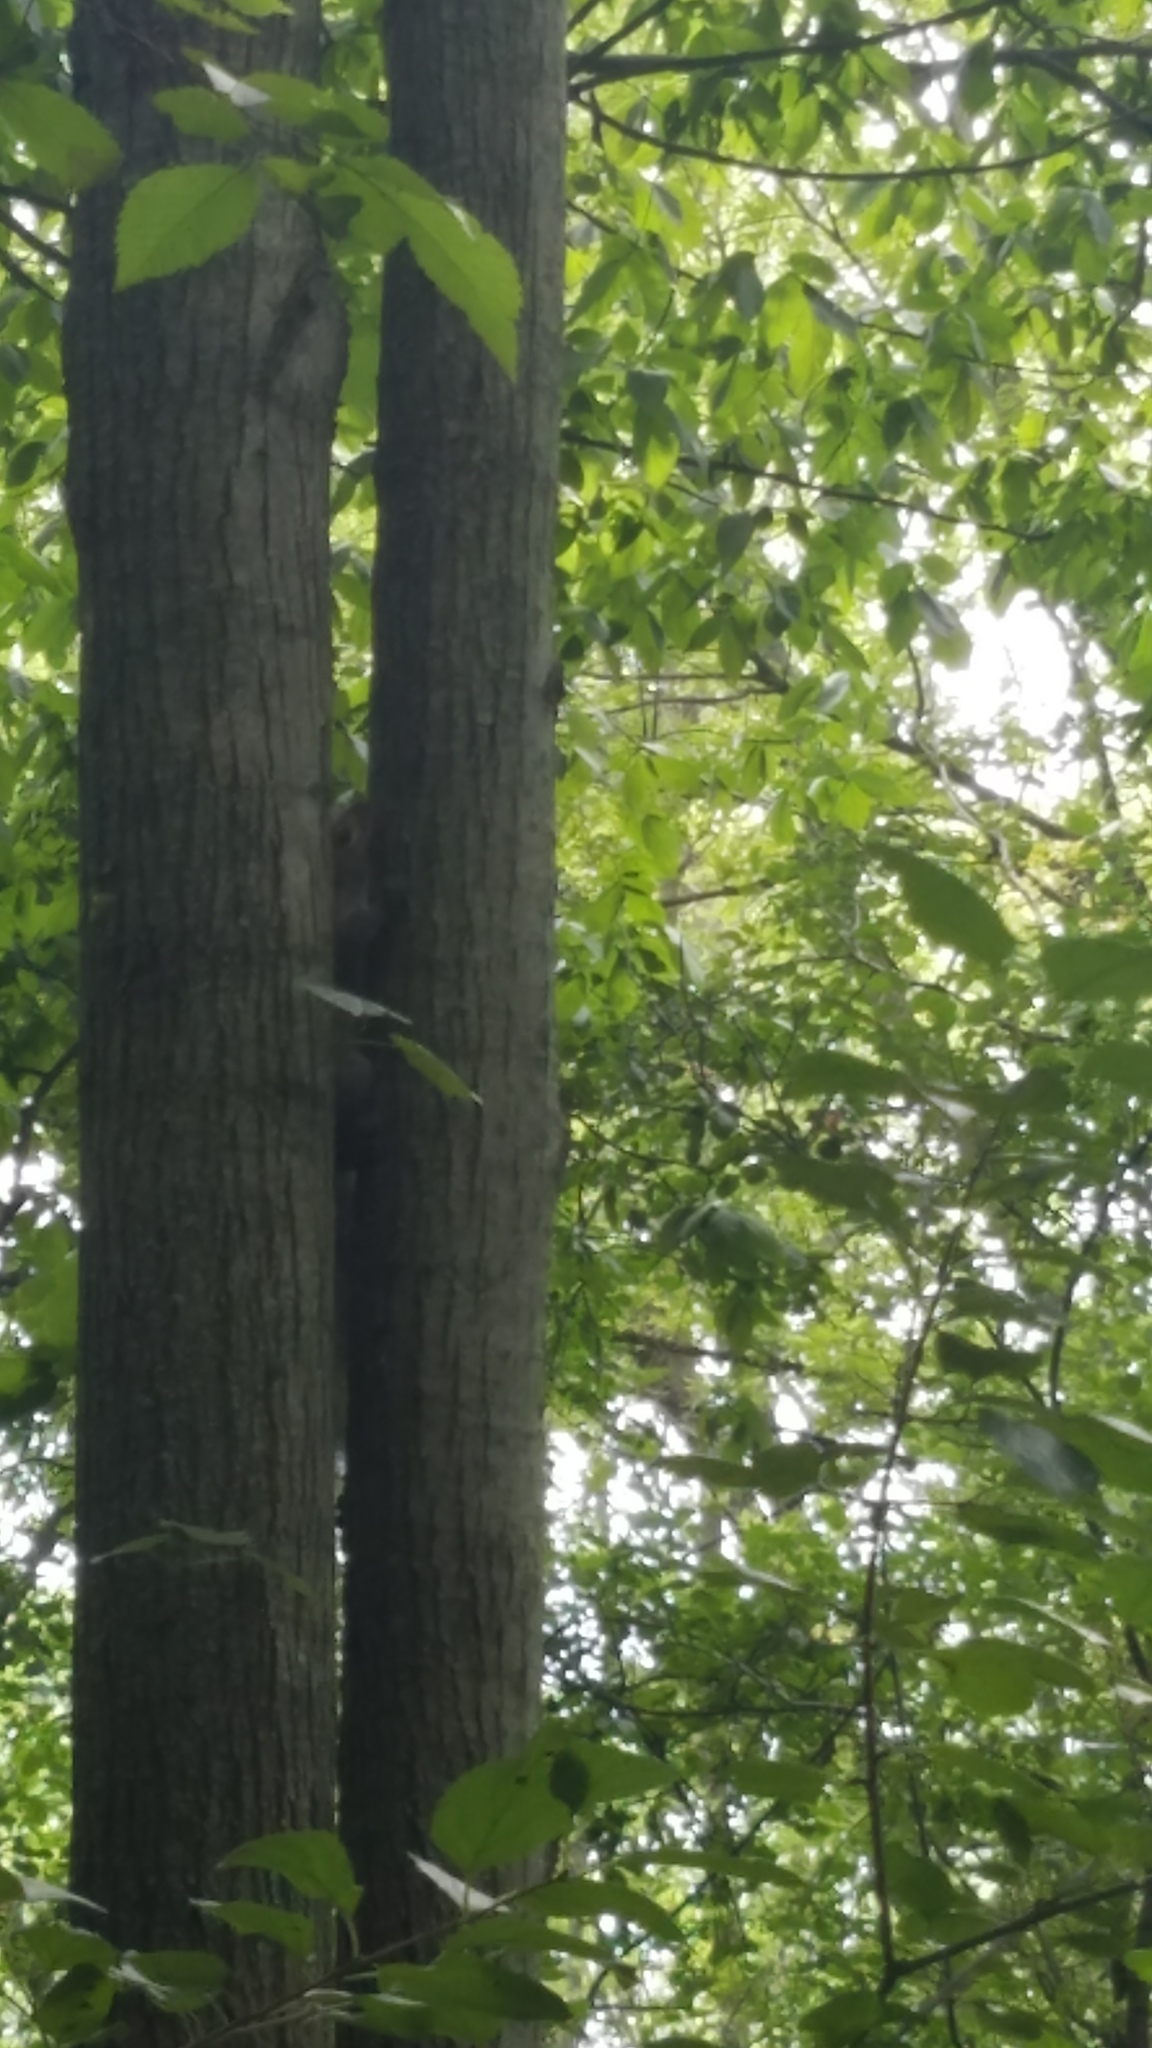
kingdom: Animalia
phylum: Chordata
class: Mammalia
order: Rodentia
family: Sciuridae
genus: Sciurus
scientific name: Sciurus carolinensis
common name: Eastern gray squirrel
